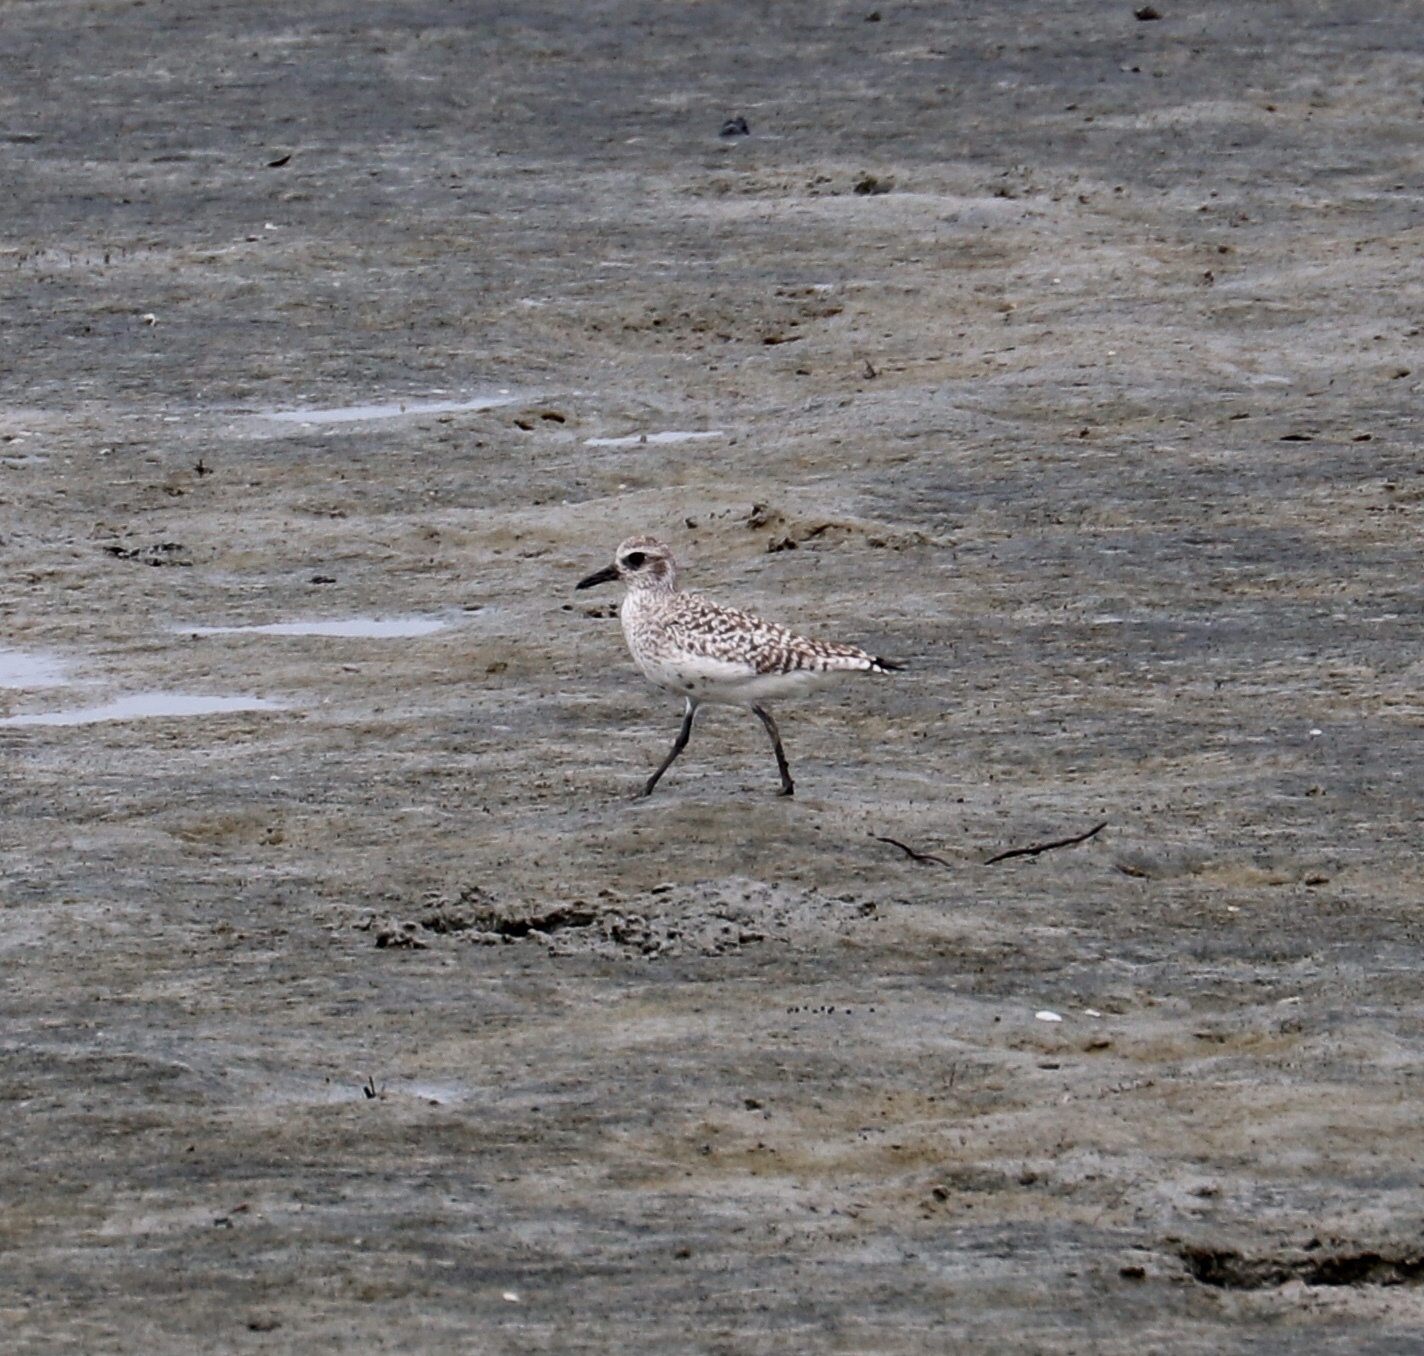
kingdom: Animalia
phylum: Chordata
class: Aves
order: Charadriiformes
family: Charadriidae
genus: Pluvialis
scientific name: Pluvialis squatarola
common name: Grey plover
